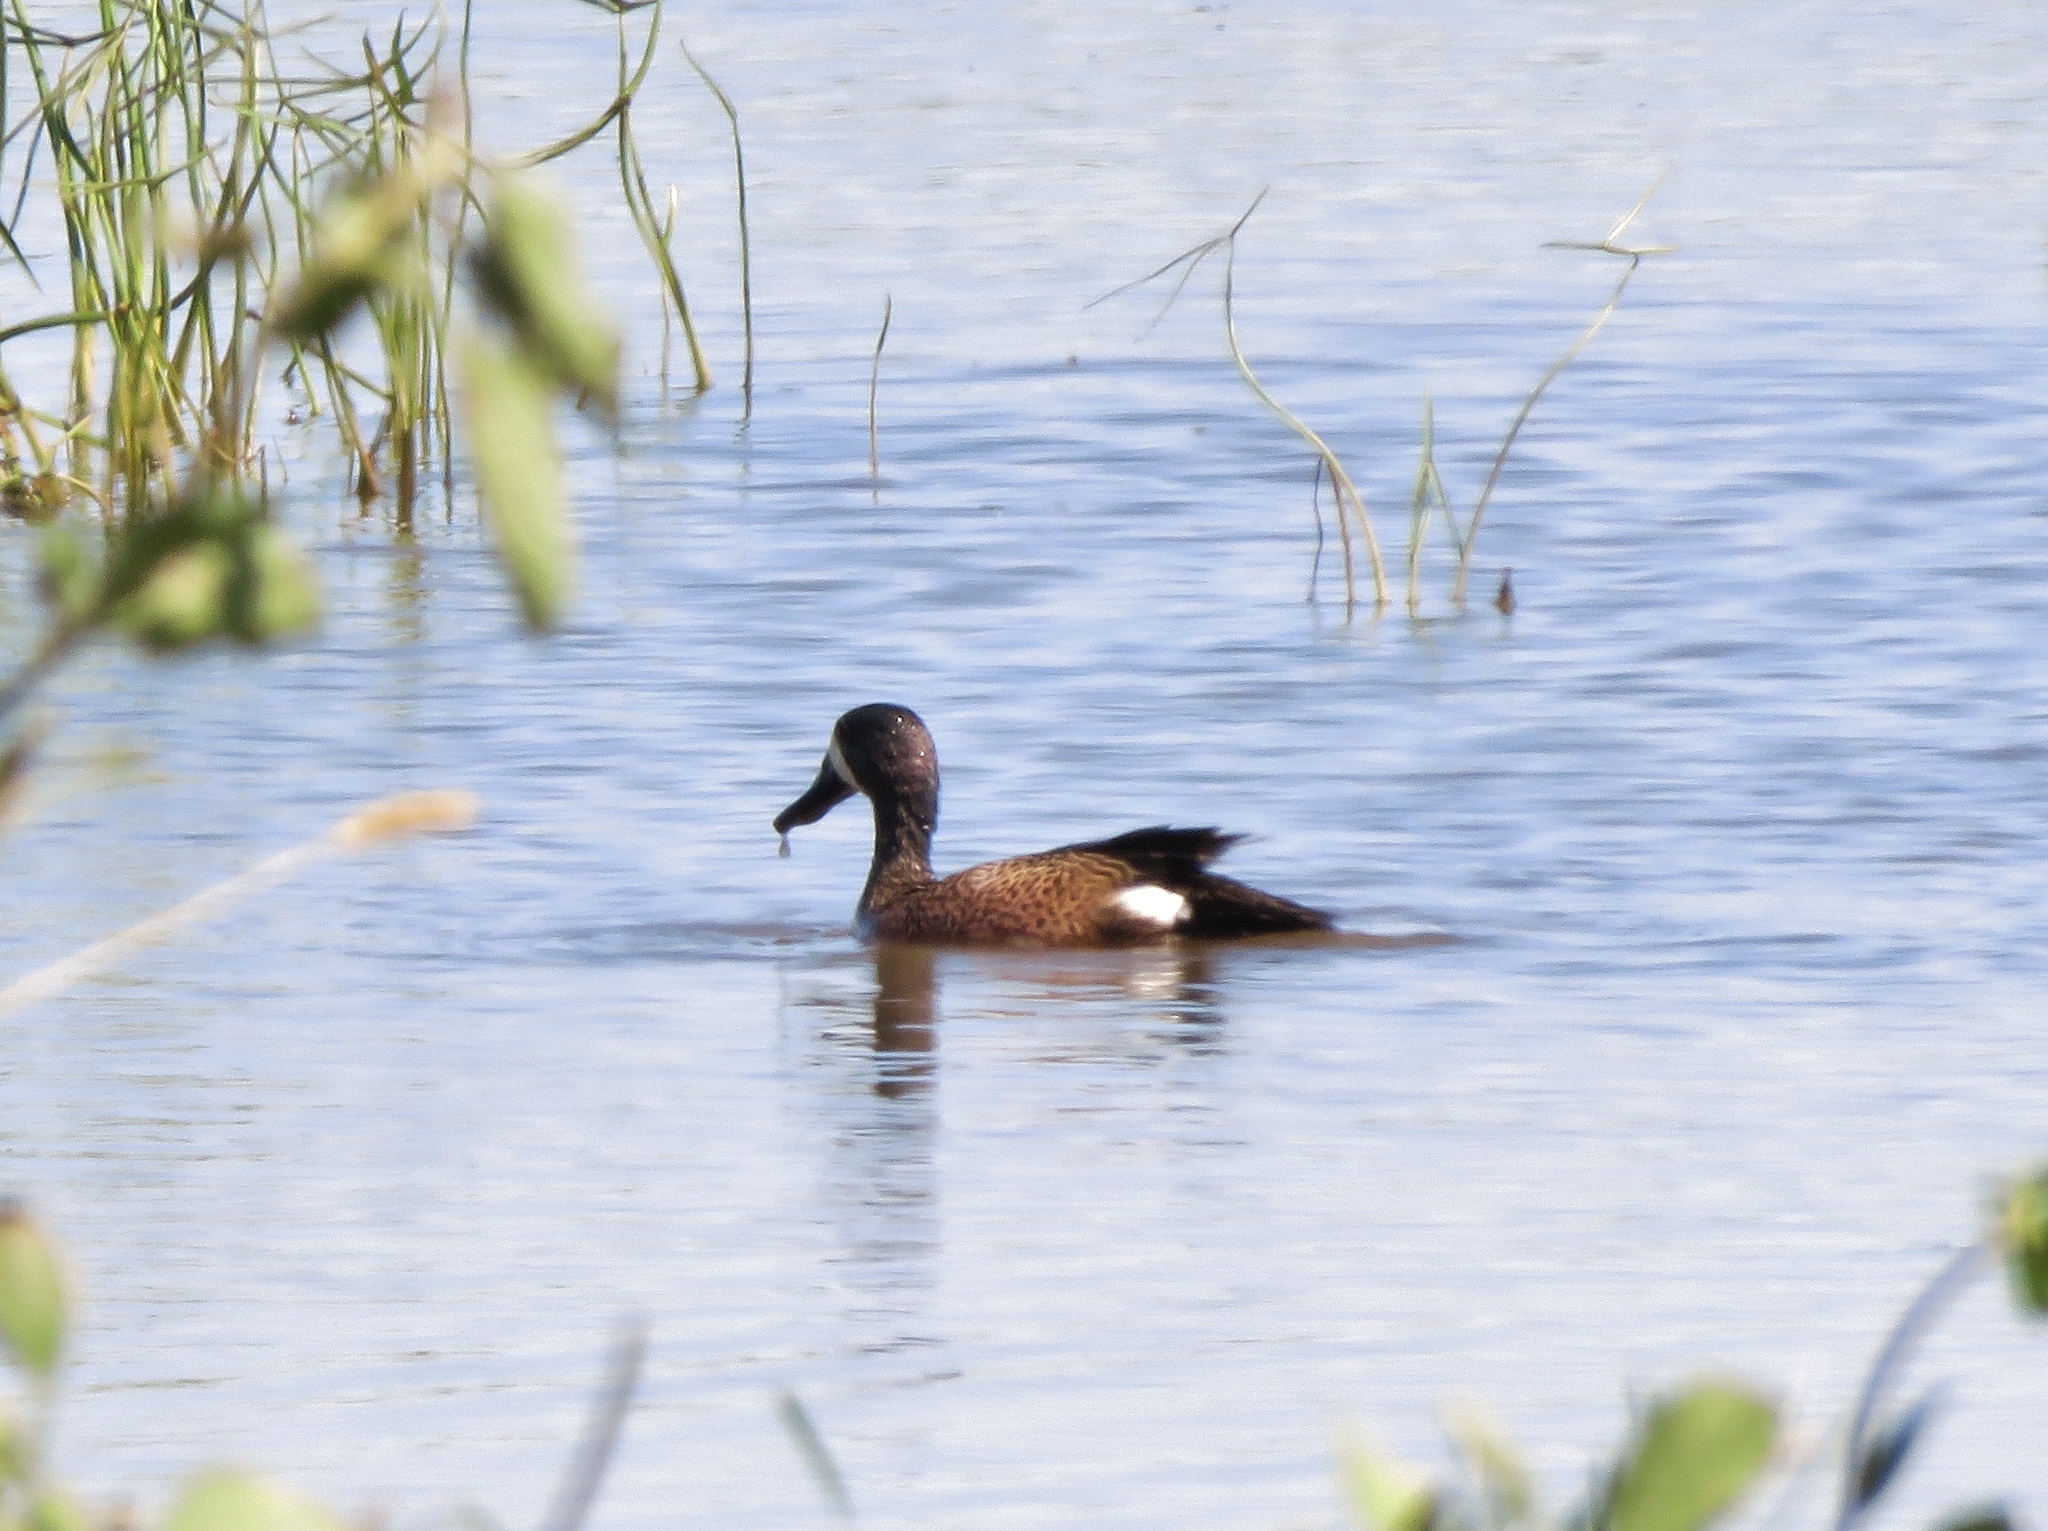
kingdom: Animalia
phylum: Chordata
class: Aves
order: Anseriformes
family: Anatidae
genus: Spatula
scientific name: Spatula discors
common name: Blue-winged teal
